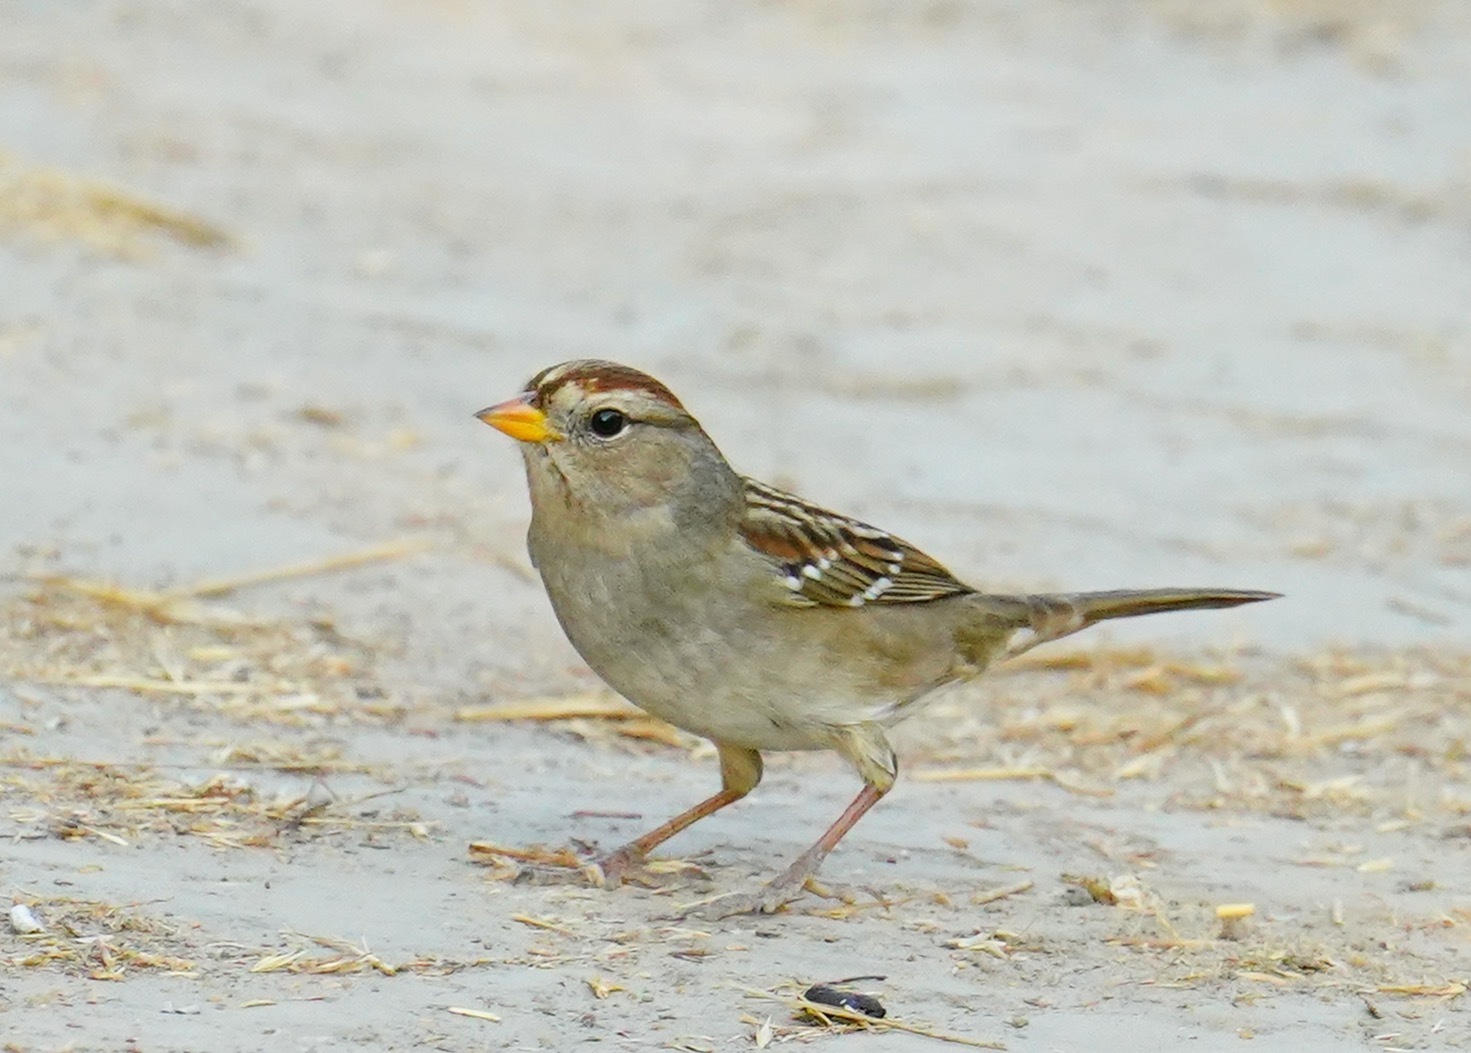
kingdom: Animalia
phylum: Chordata
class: Aves
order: Passeriformes
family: Passerellidae
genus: Zonotrichia
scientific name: Zonotrichia leucophrys
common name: White-crowned sparrow
